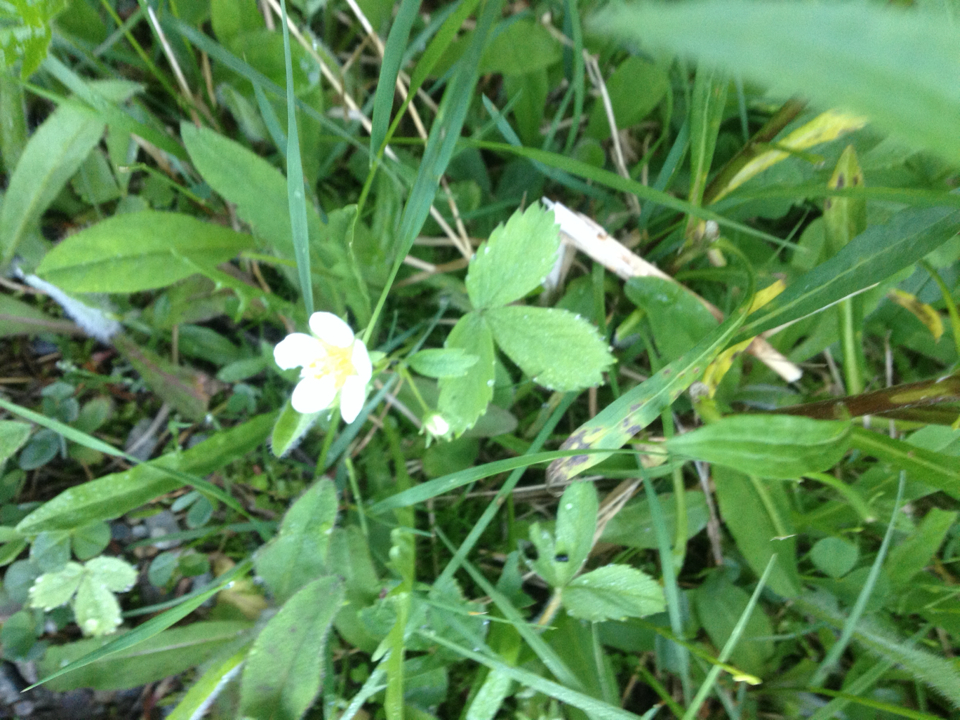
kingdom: Plantae
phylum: Tracheophyta
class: Magnoliopsida
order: Rosales
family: Rosaceae
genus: Fragaria
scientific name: Fragaria vesca
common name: Wild strawberry
